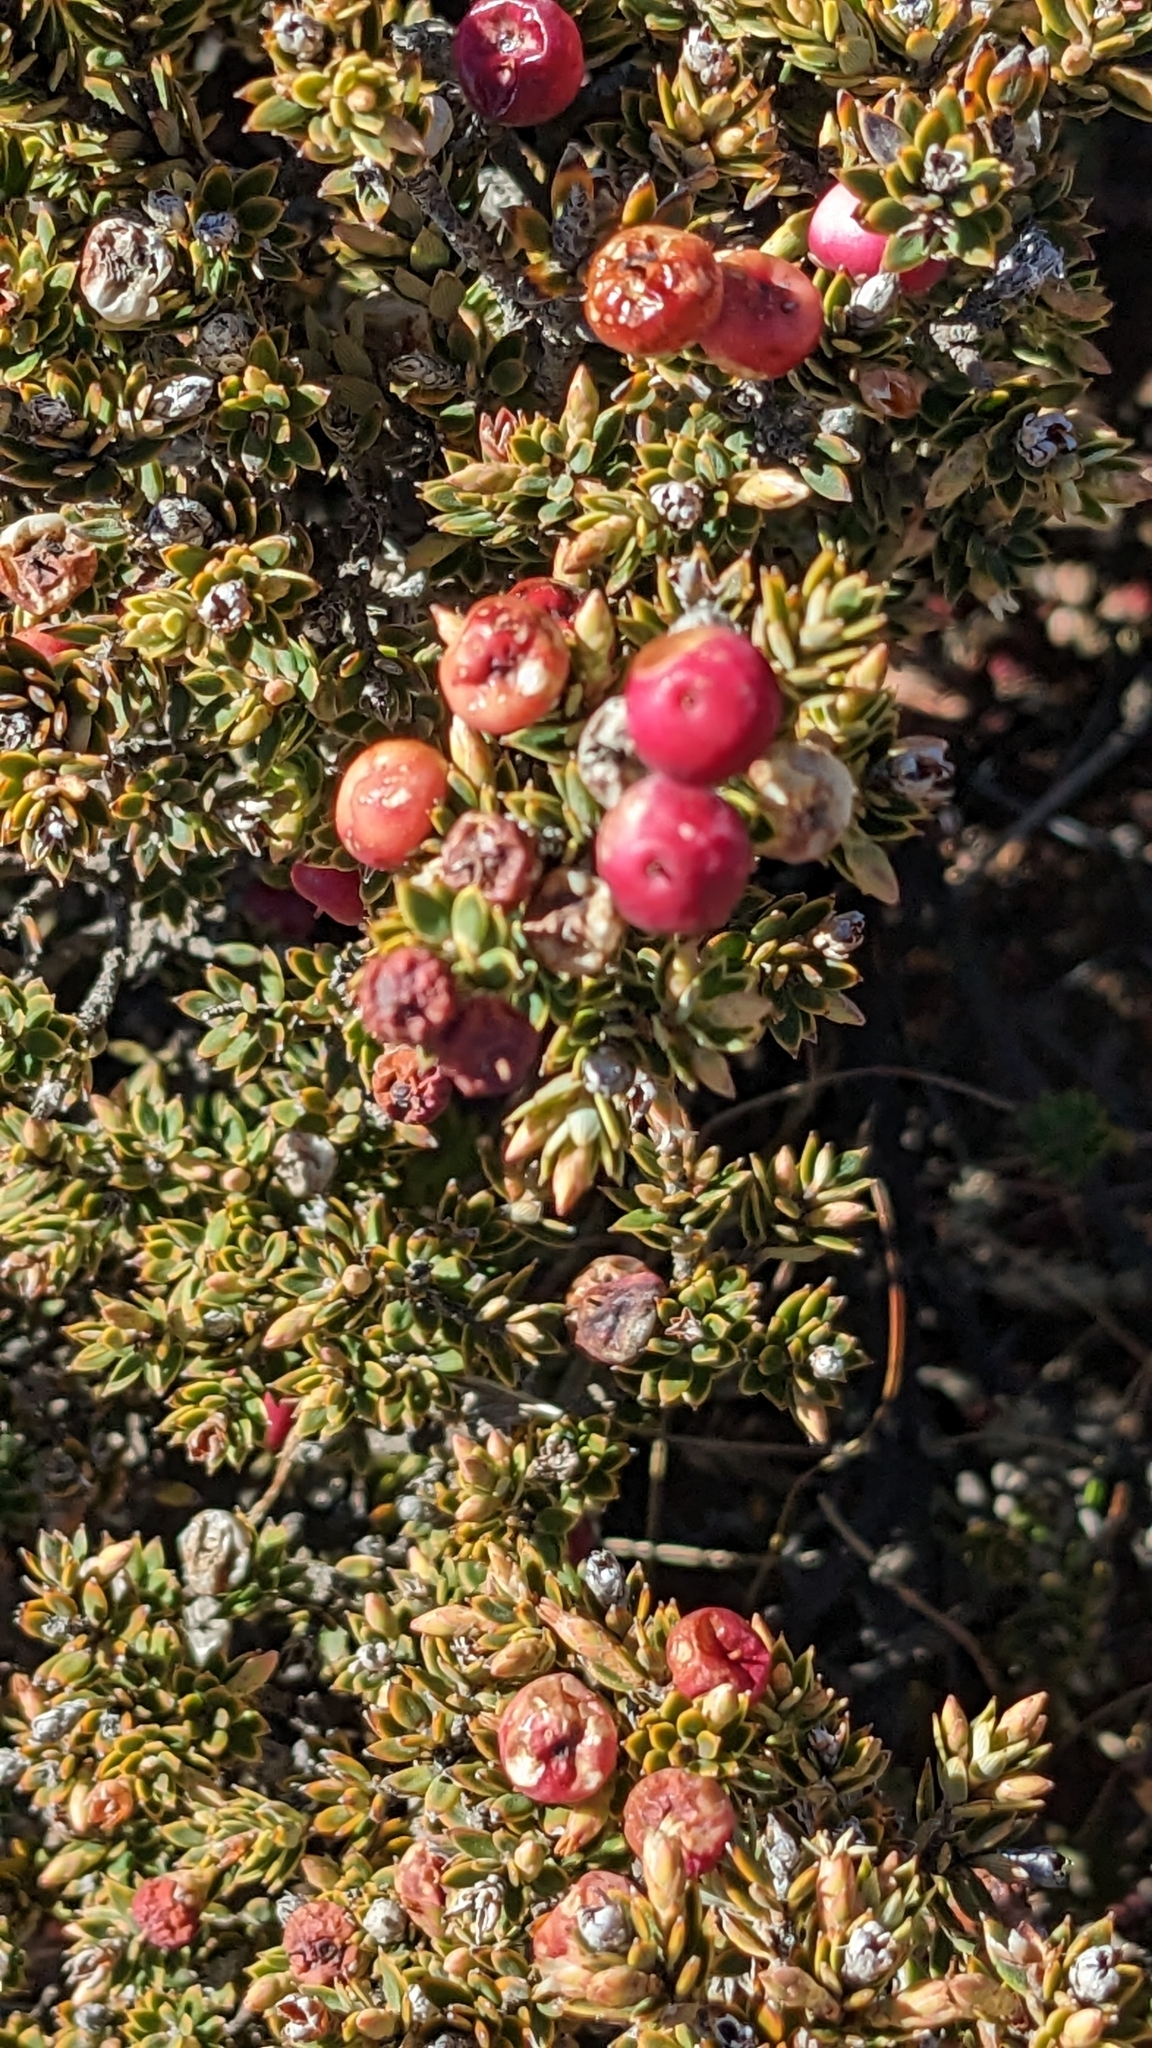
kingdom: Plantae
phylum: Tracheophyta
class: Magnoliopsida
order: Ericales
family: Ericaceae
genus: Leptecophylla
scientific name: Leptecophylla tameiameiae
